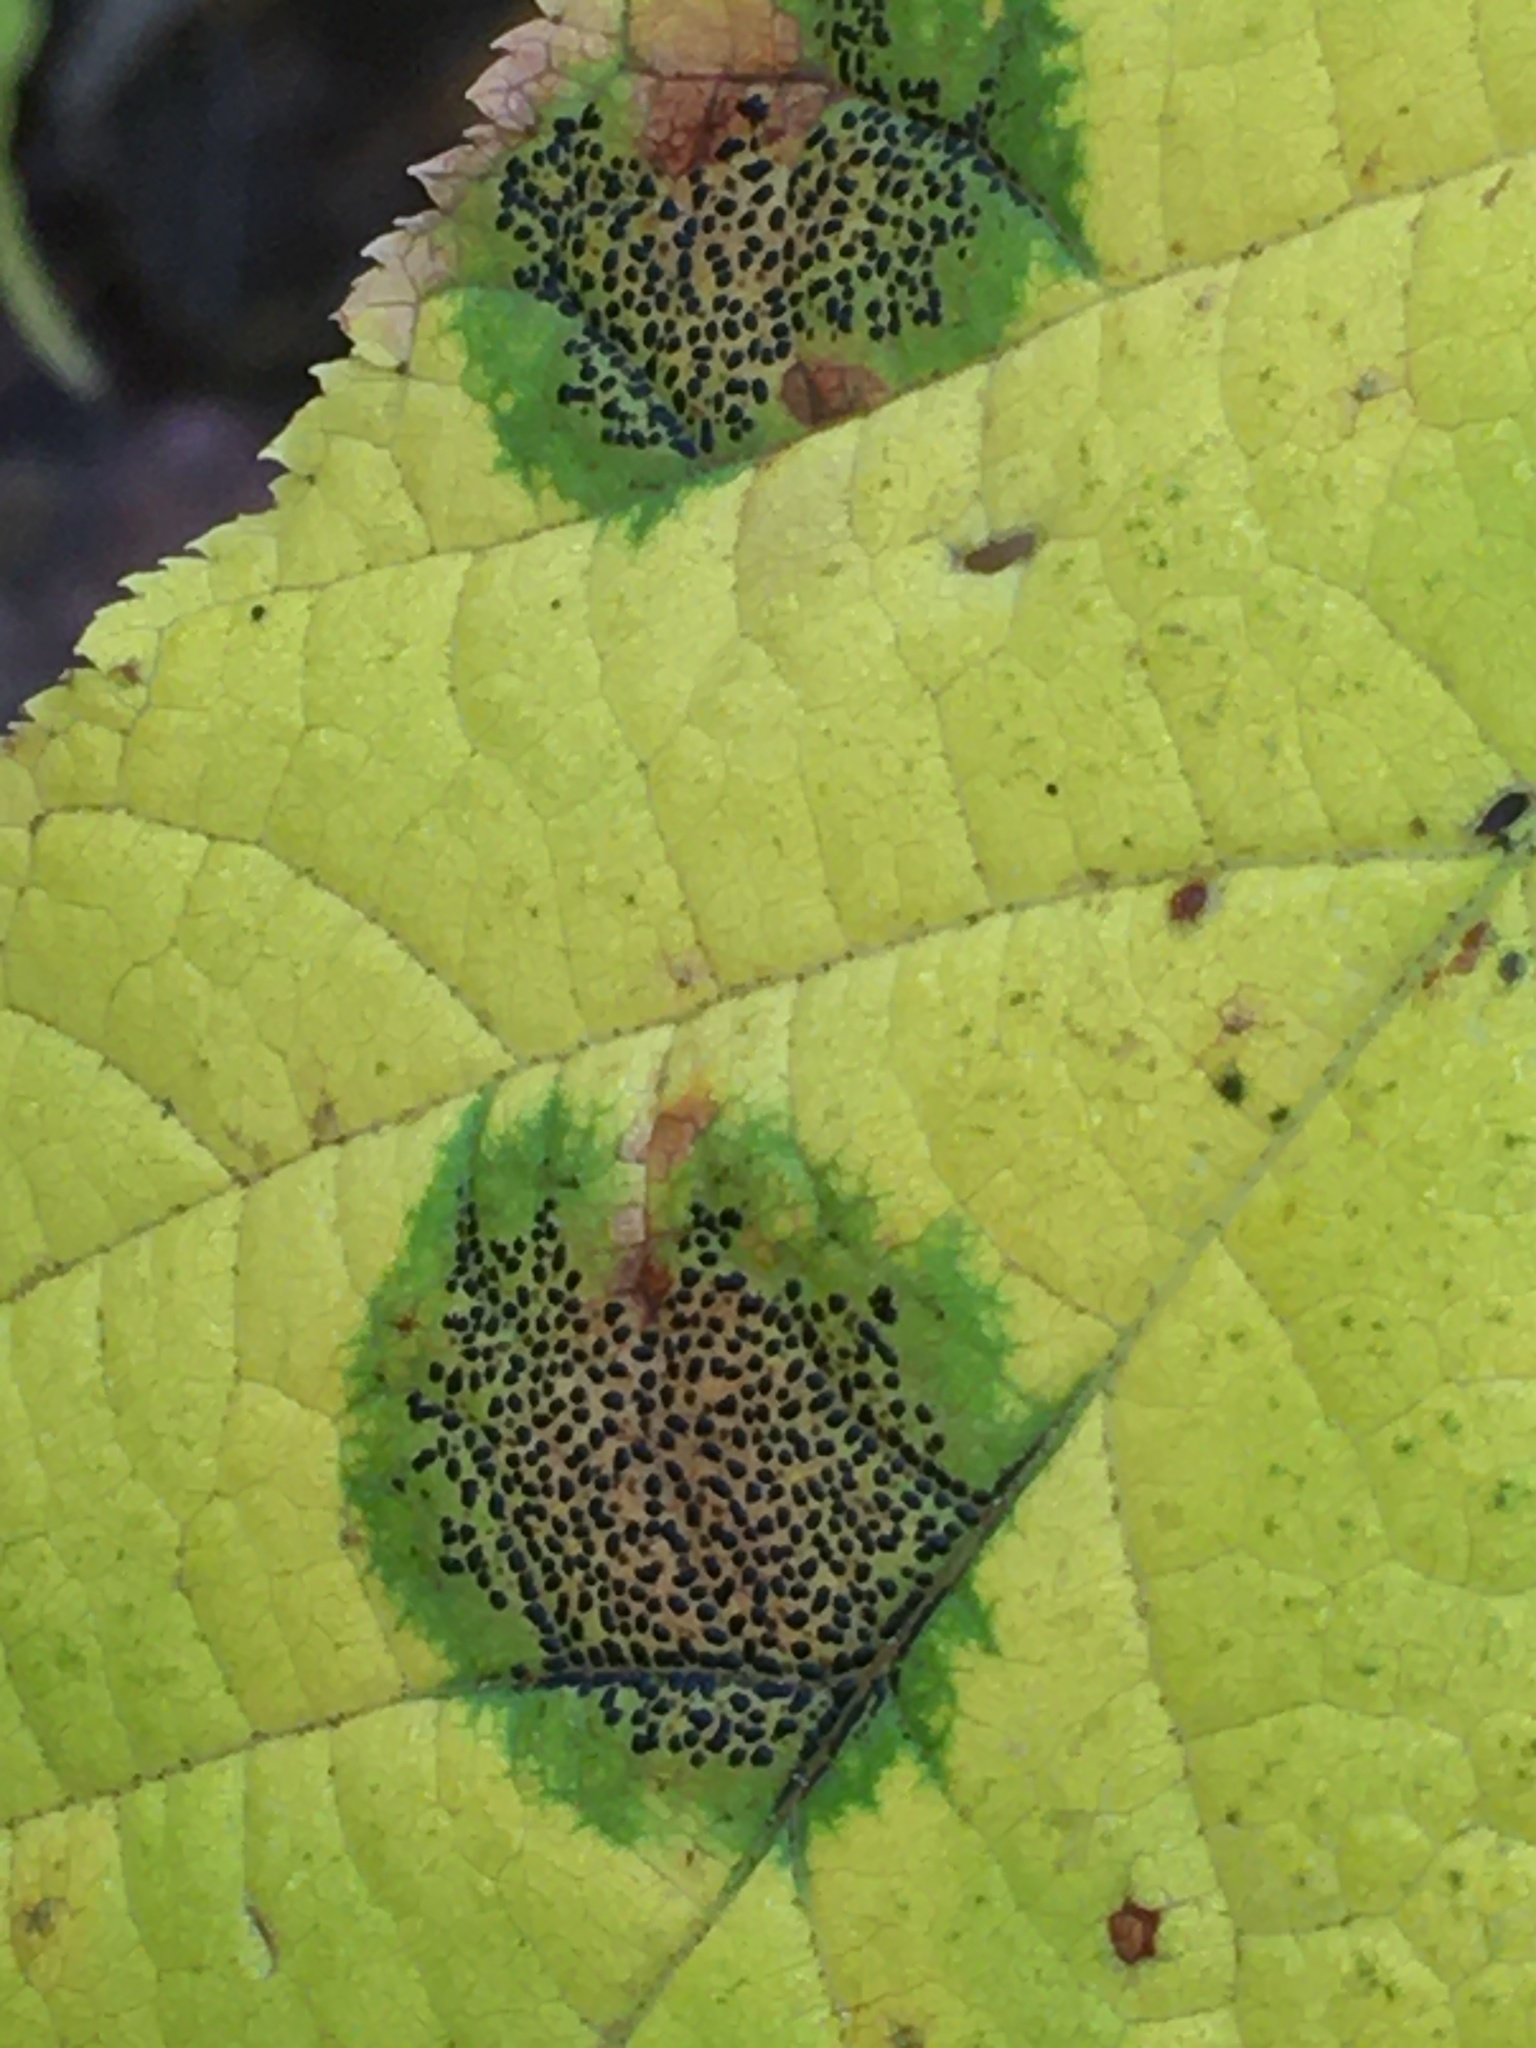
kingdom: Fungi
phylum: Ascomycota
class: Leotiomycetes
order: Rhytismatales
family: Rhytismataceae
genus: Rhytisma
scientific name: Rhytisma punctatum
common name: Speckled tar spot
